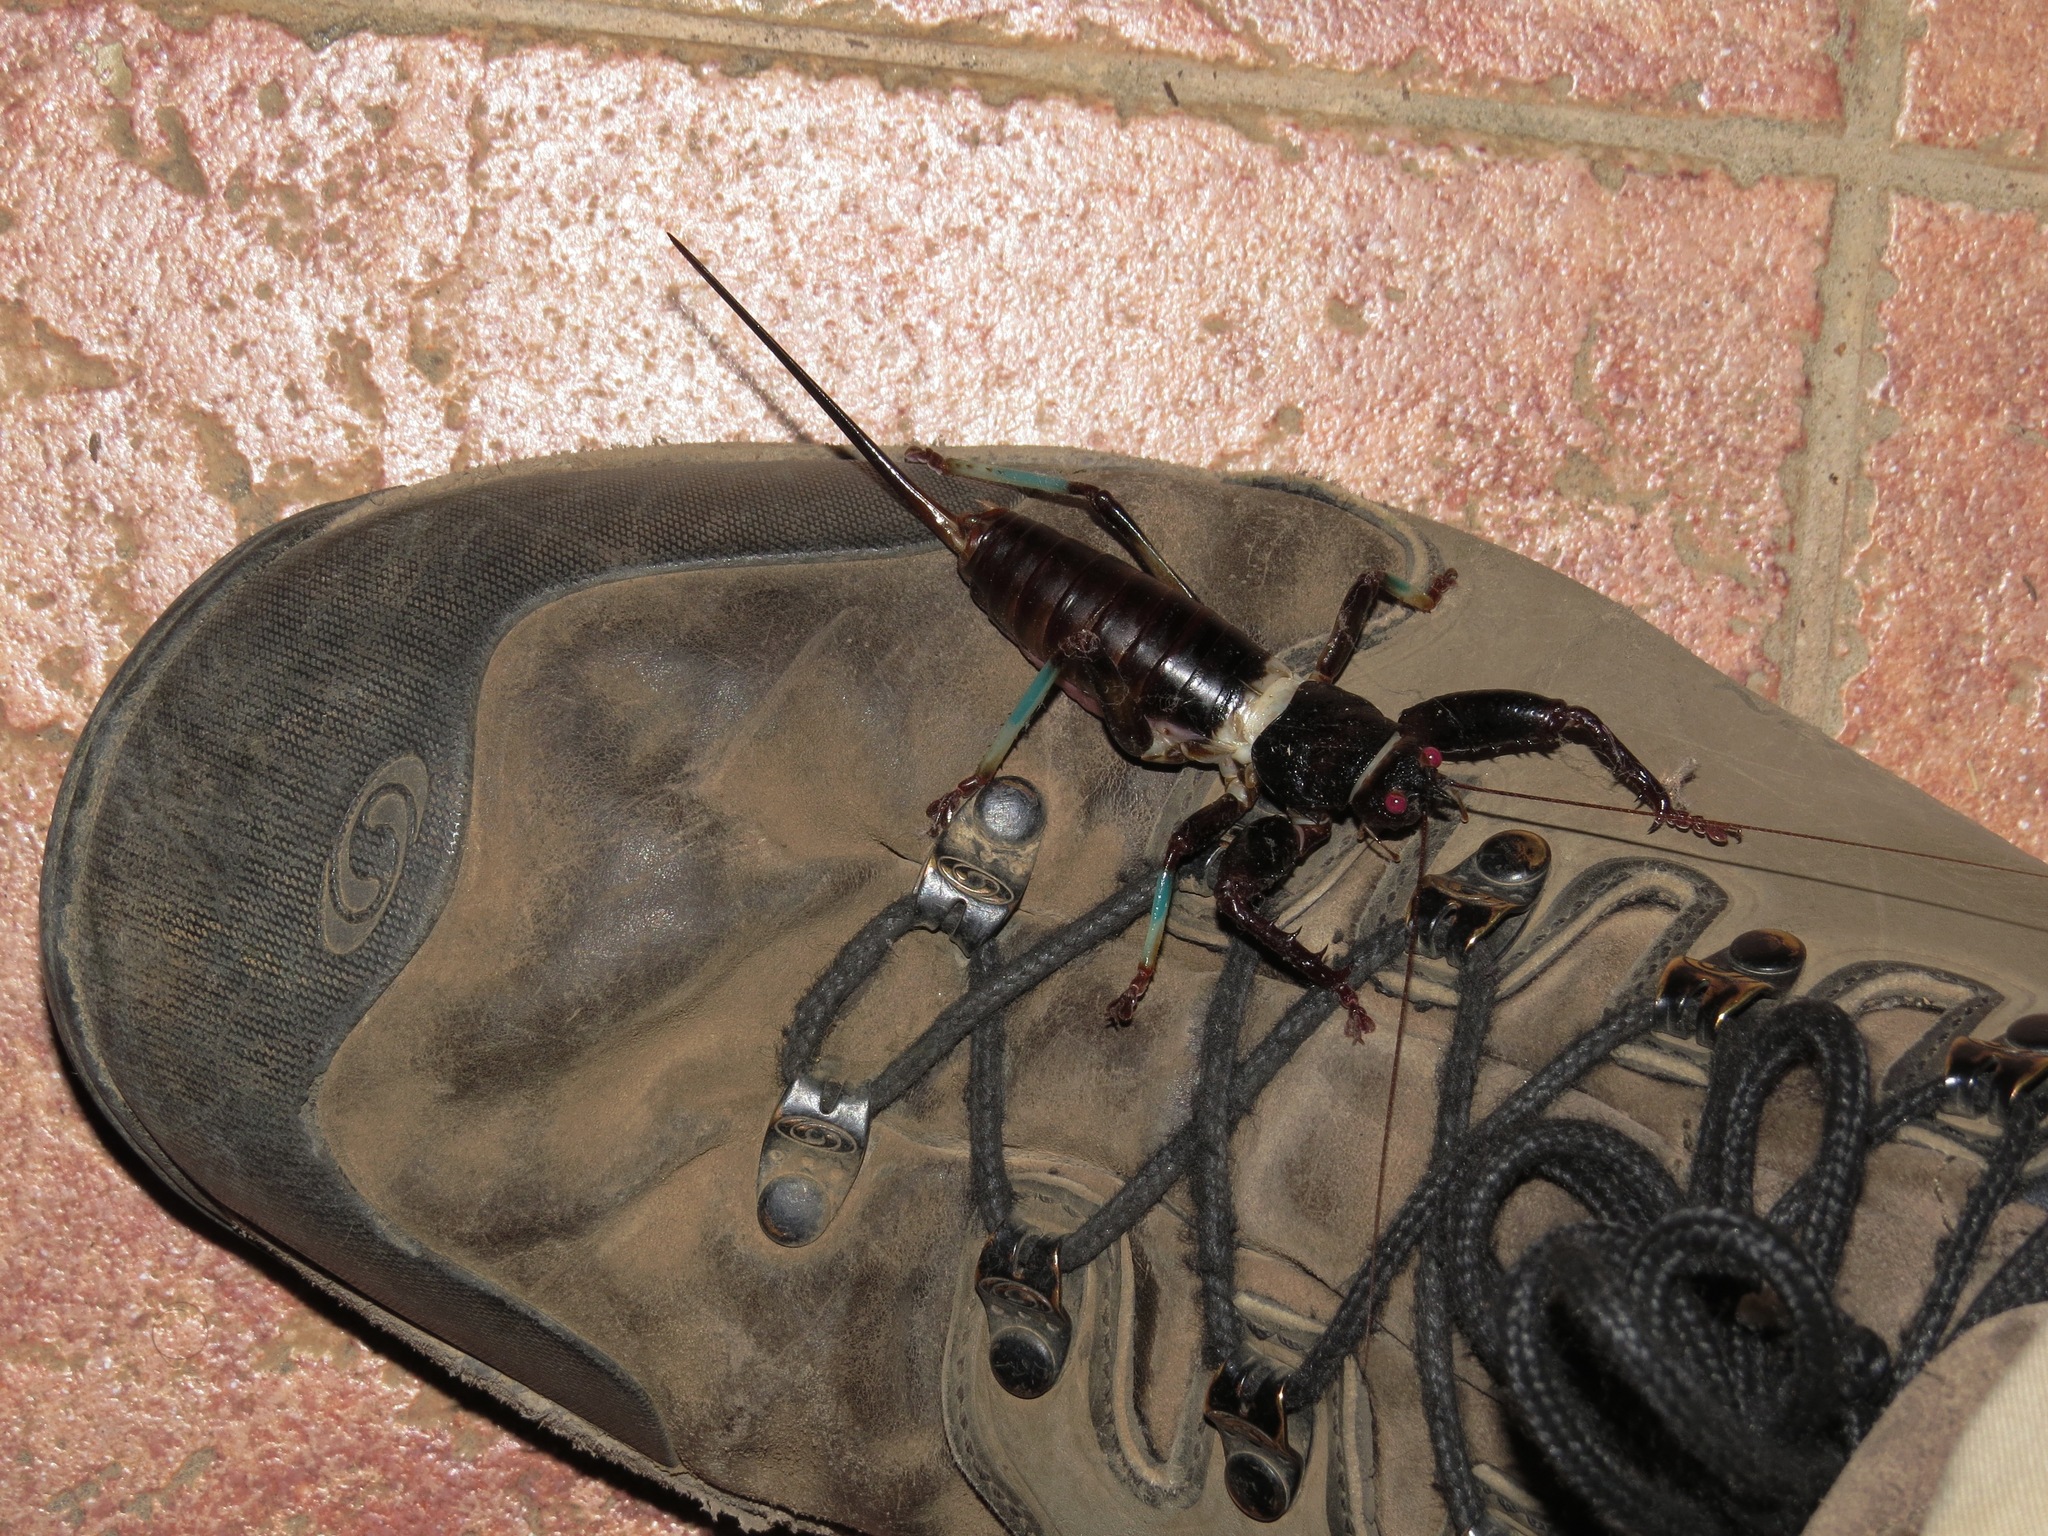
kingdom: Animalia
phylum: Arthropoda
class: Insecta
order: Orthoptera
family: Tettigoniidae
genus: Colossopus
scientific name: Colossopus grandidieri
